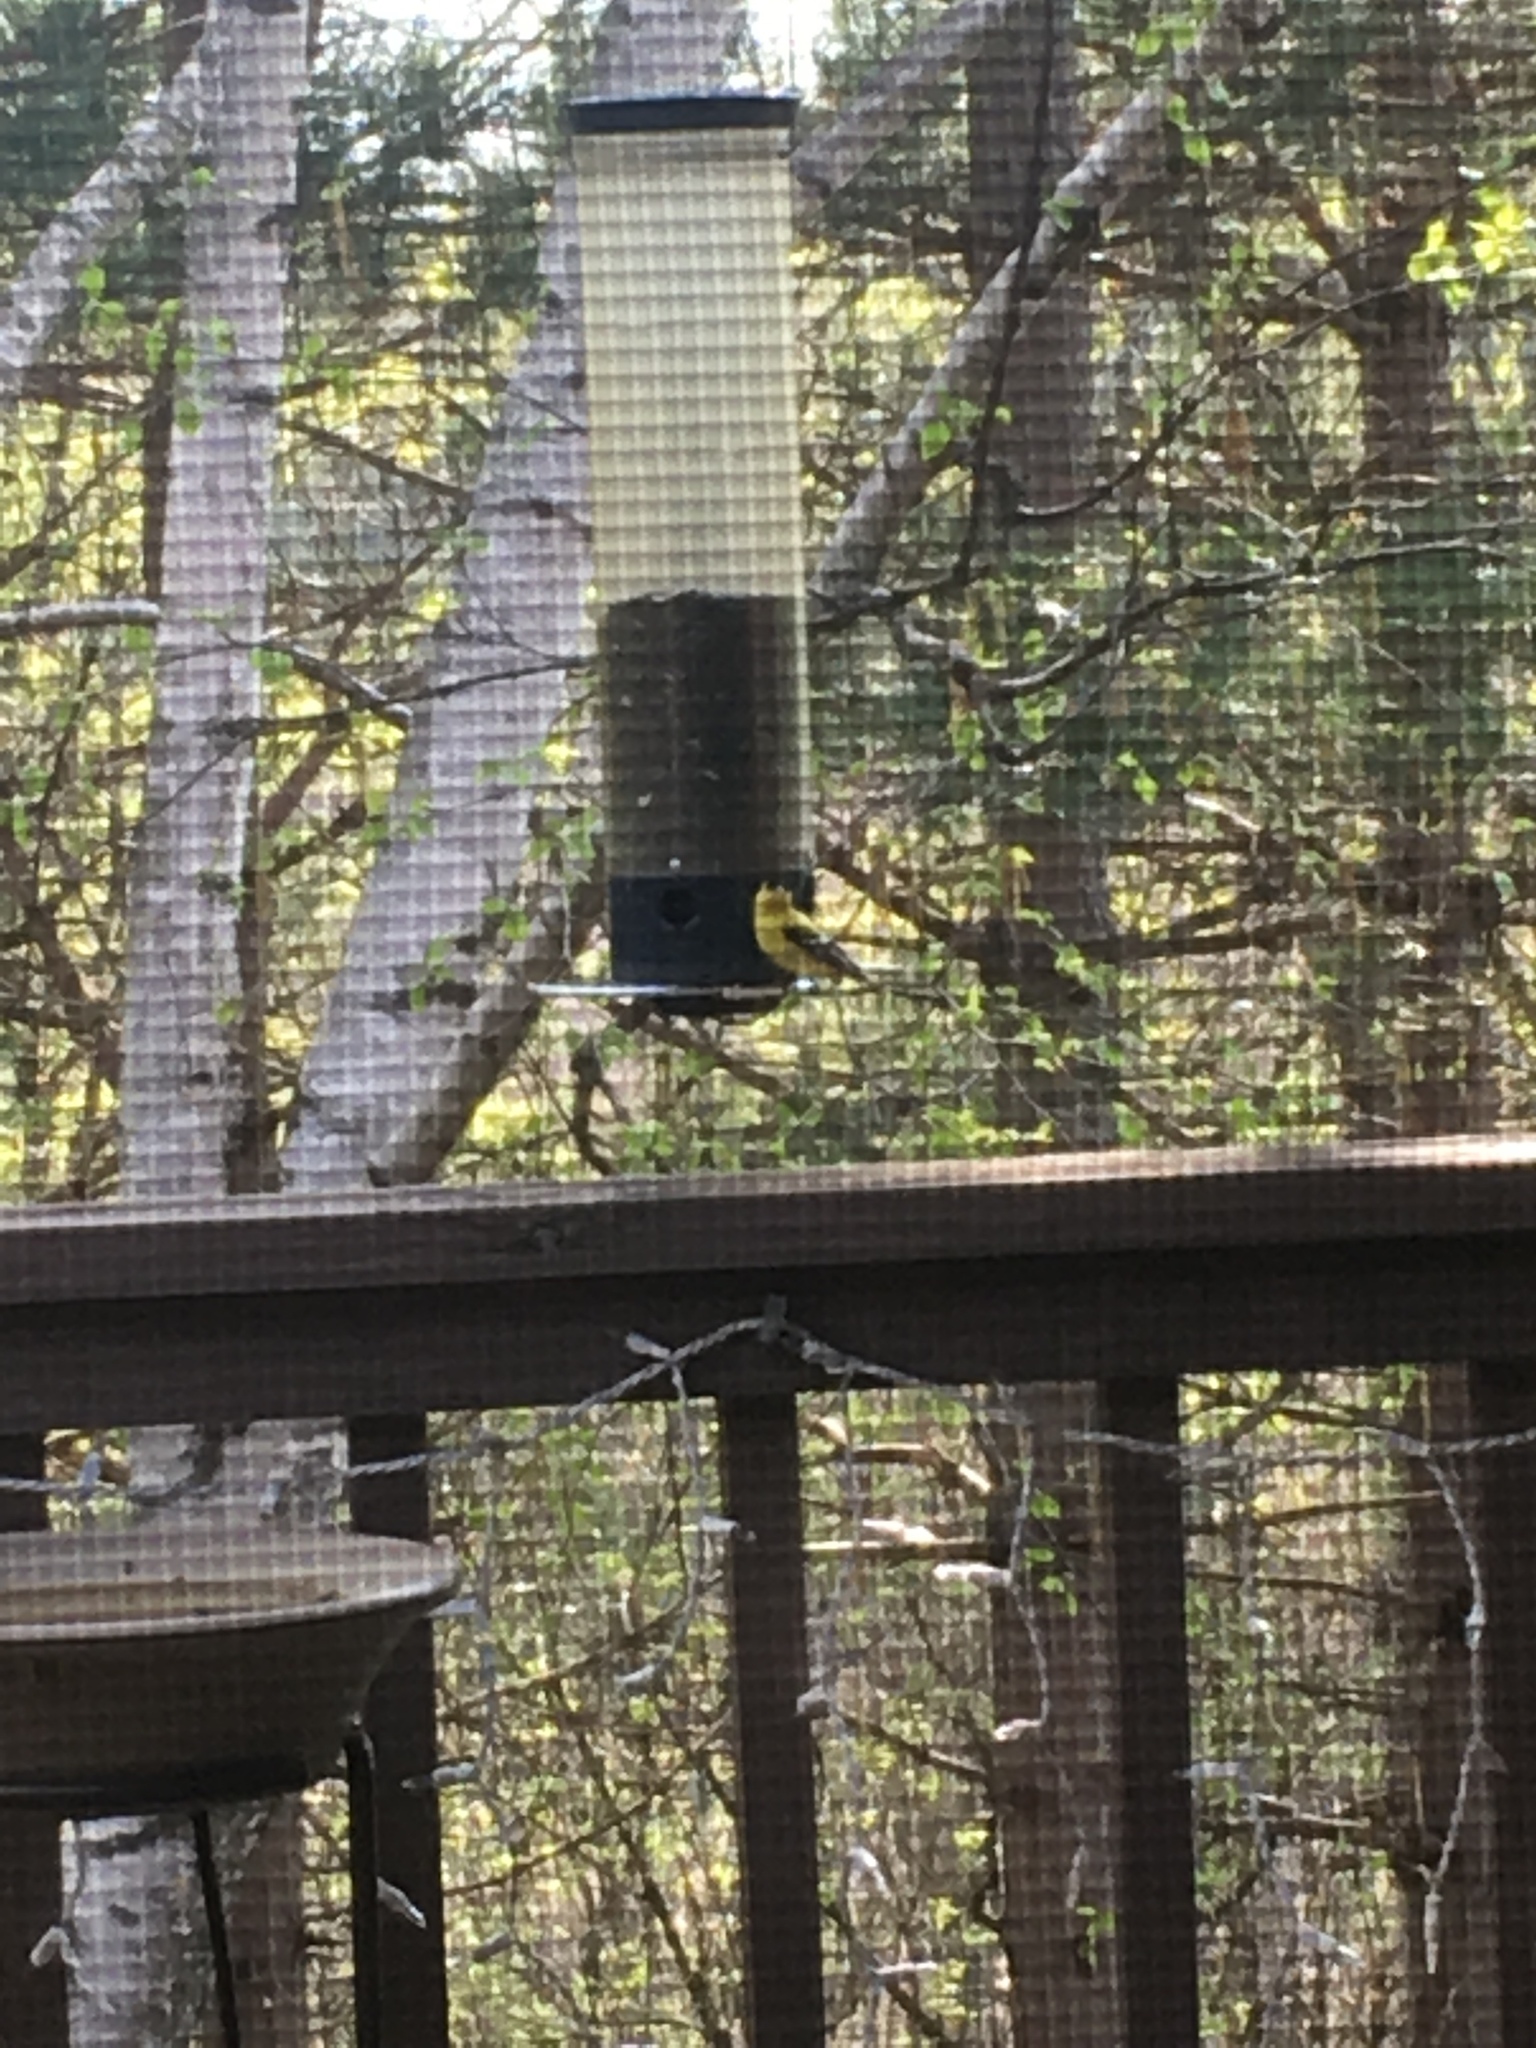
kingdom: Animalia
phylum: Chordata
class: Aves
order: Passeriformes
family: Fringillidae
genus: Spinus
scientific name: Spinus tristis
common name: American goldfinch
